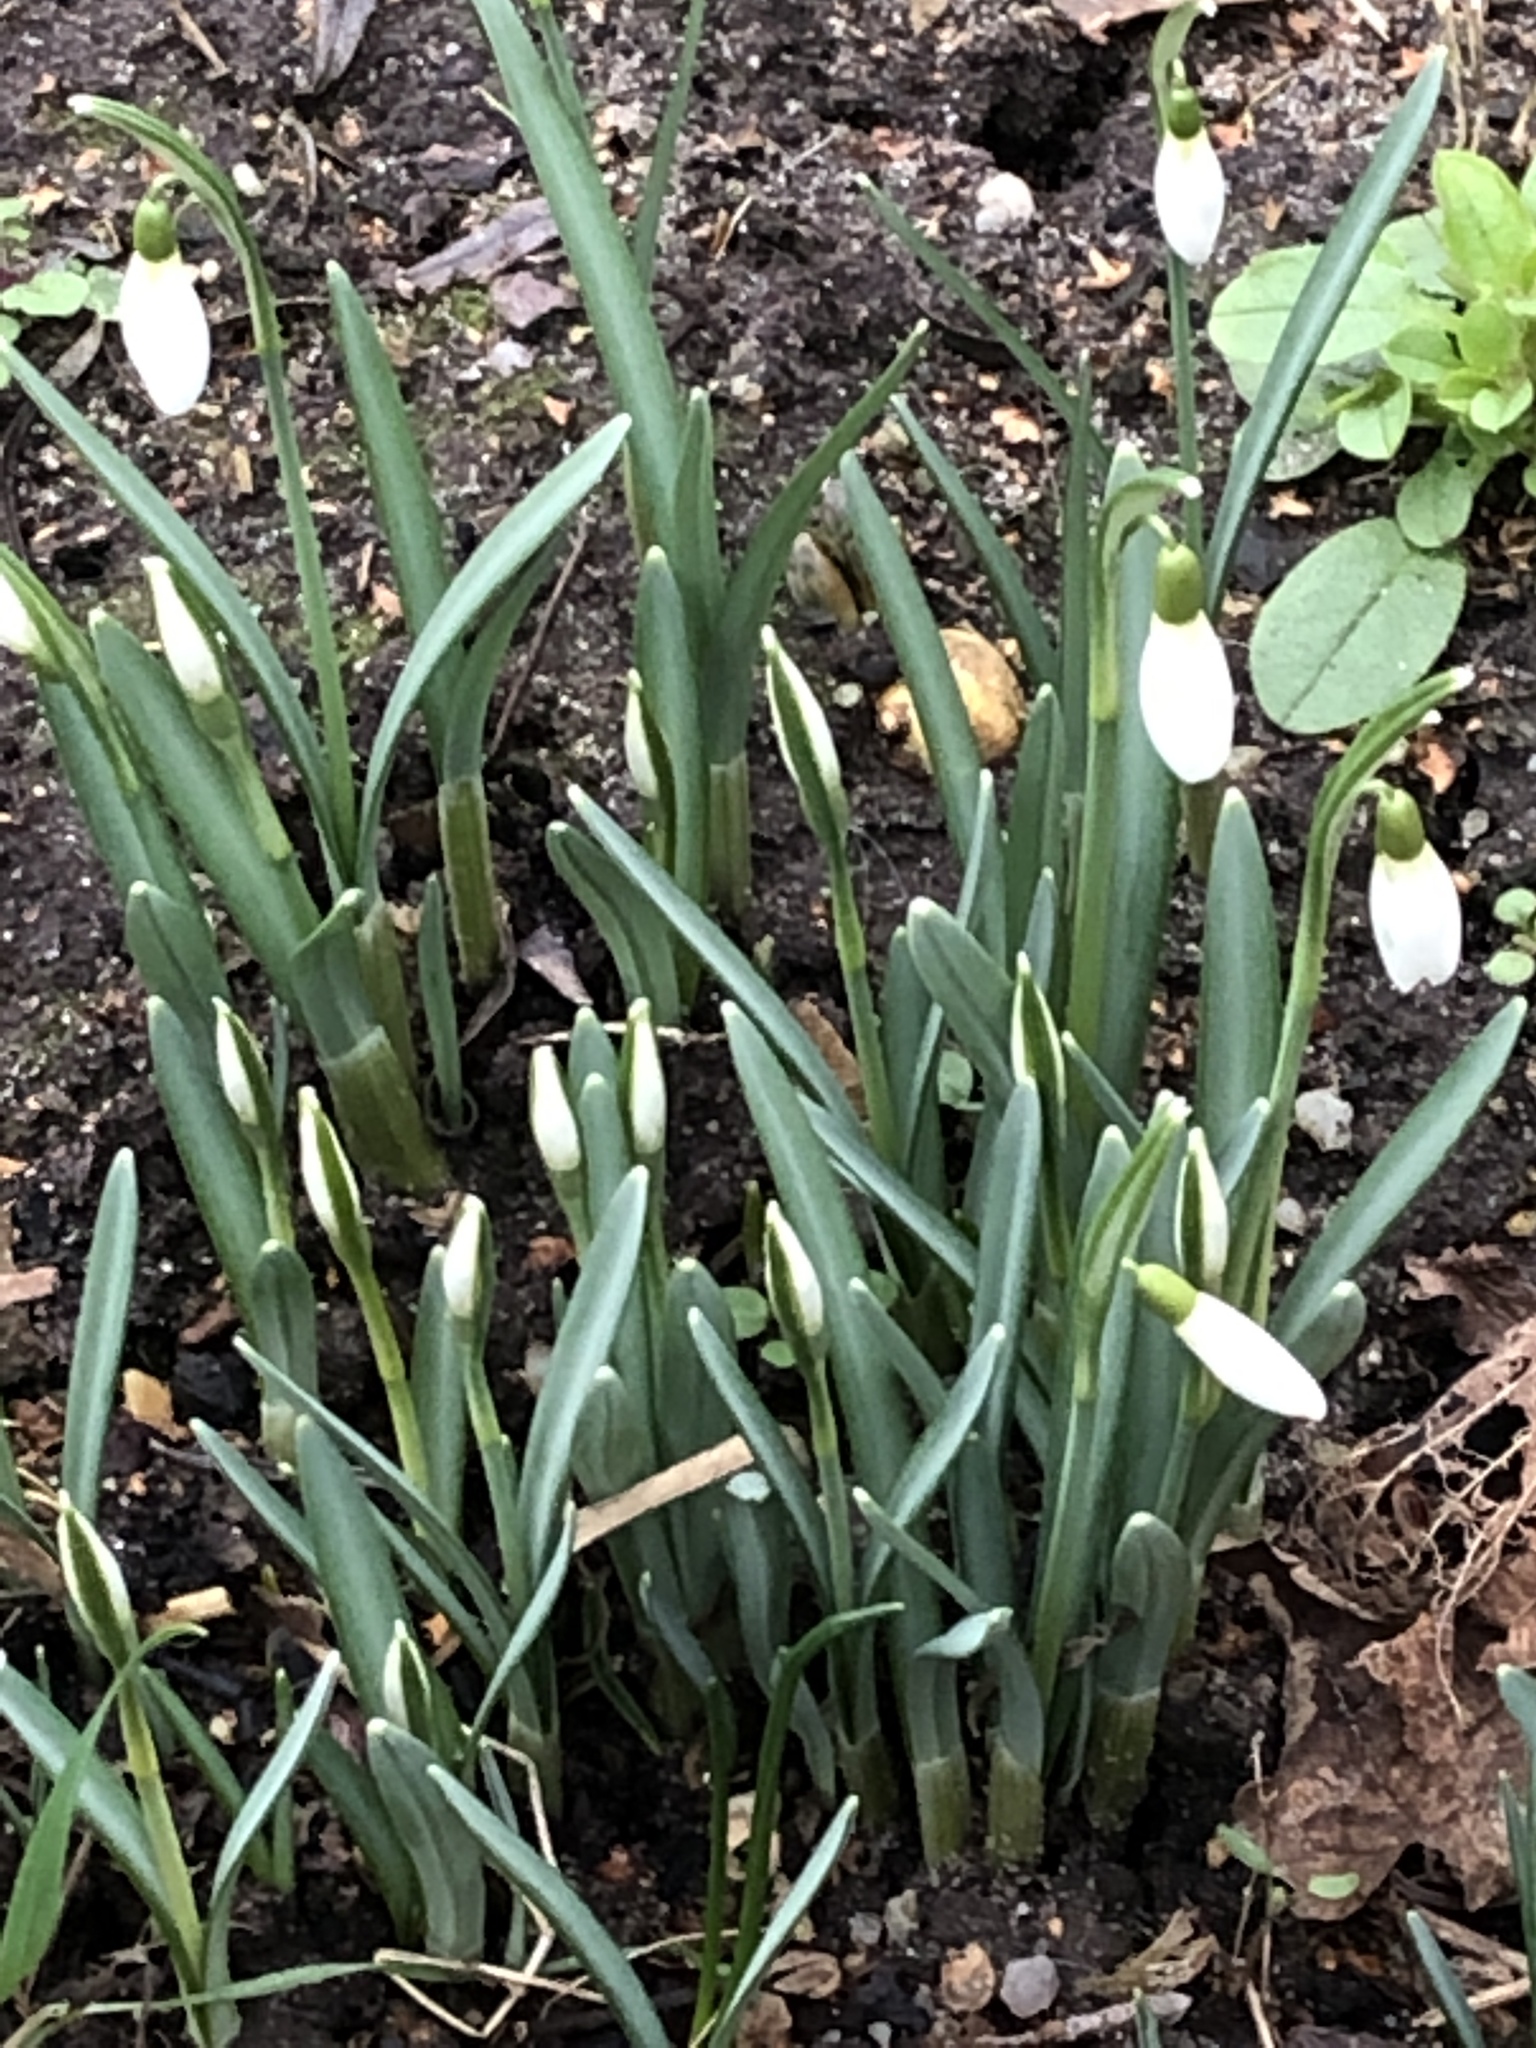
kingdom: Plantae
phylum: Tracheophyta
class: Liliopsida
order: Asparagales
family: Amaryllidaceae
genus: Galanthus
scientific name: Galanthus nivalis
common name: Snowdrop
